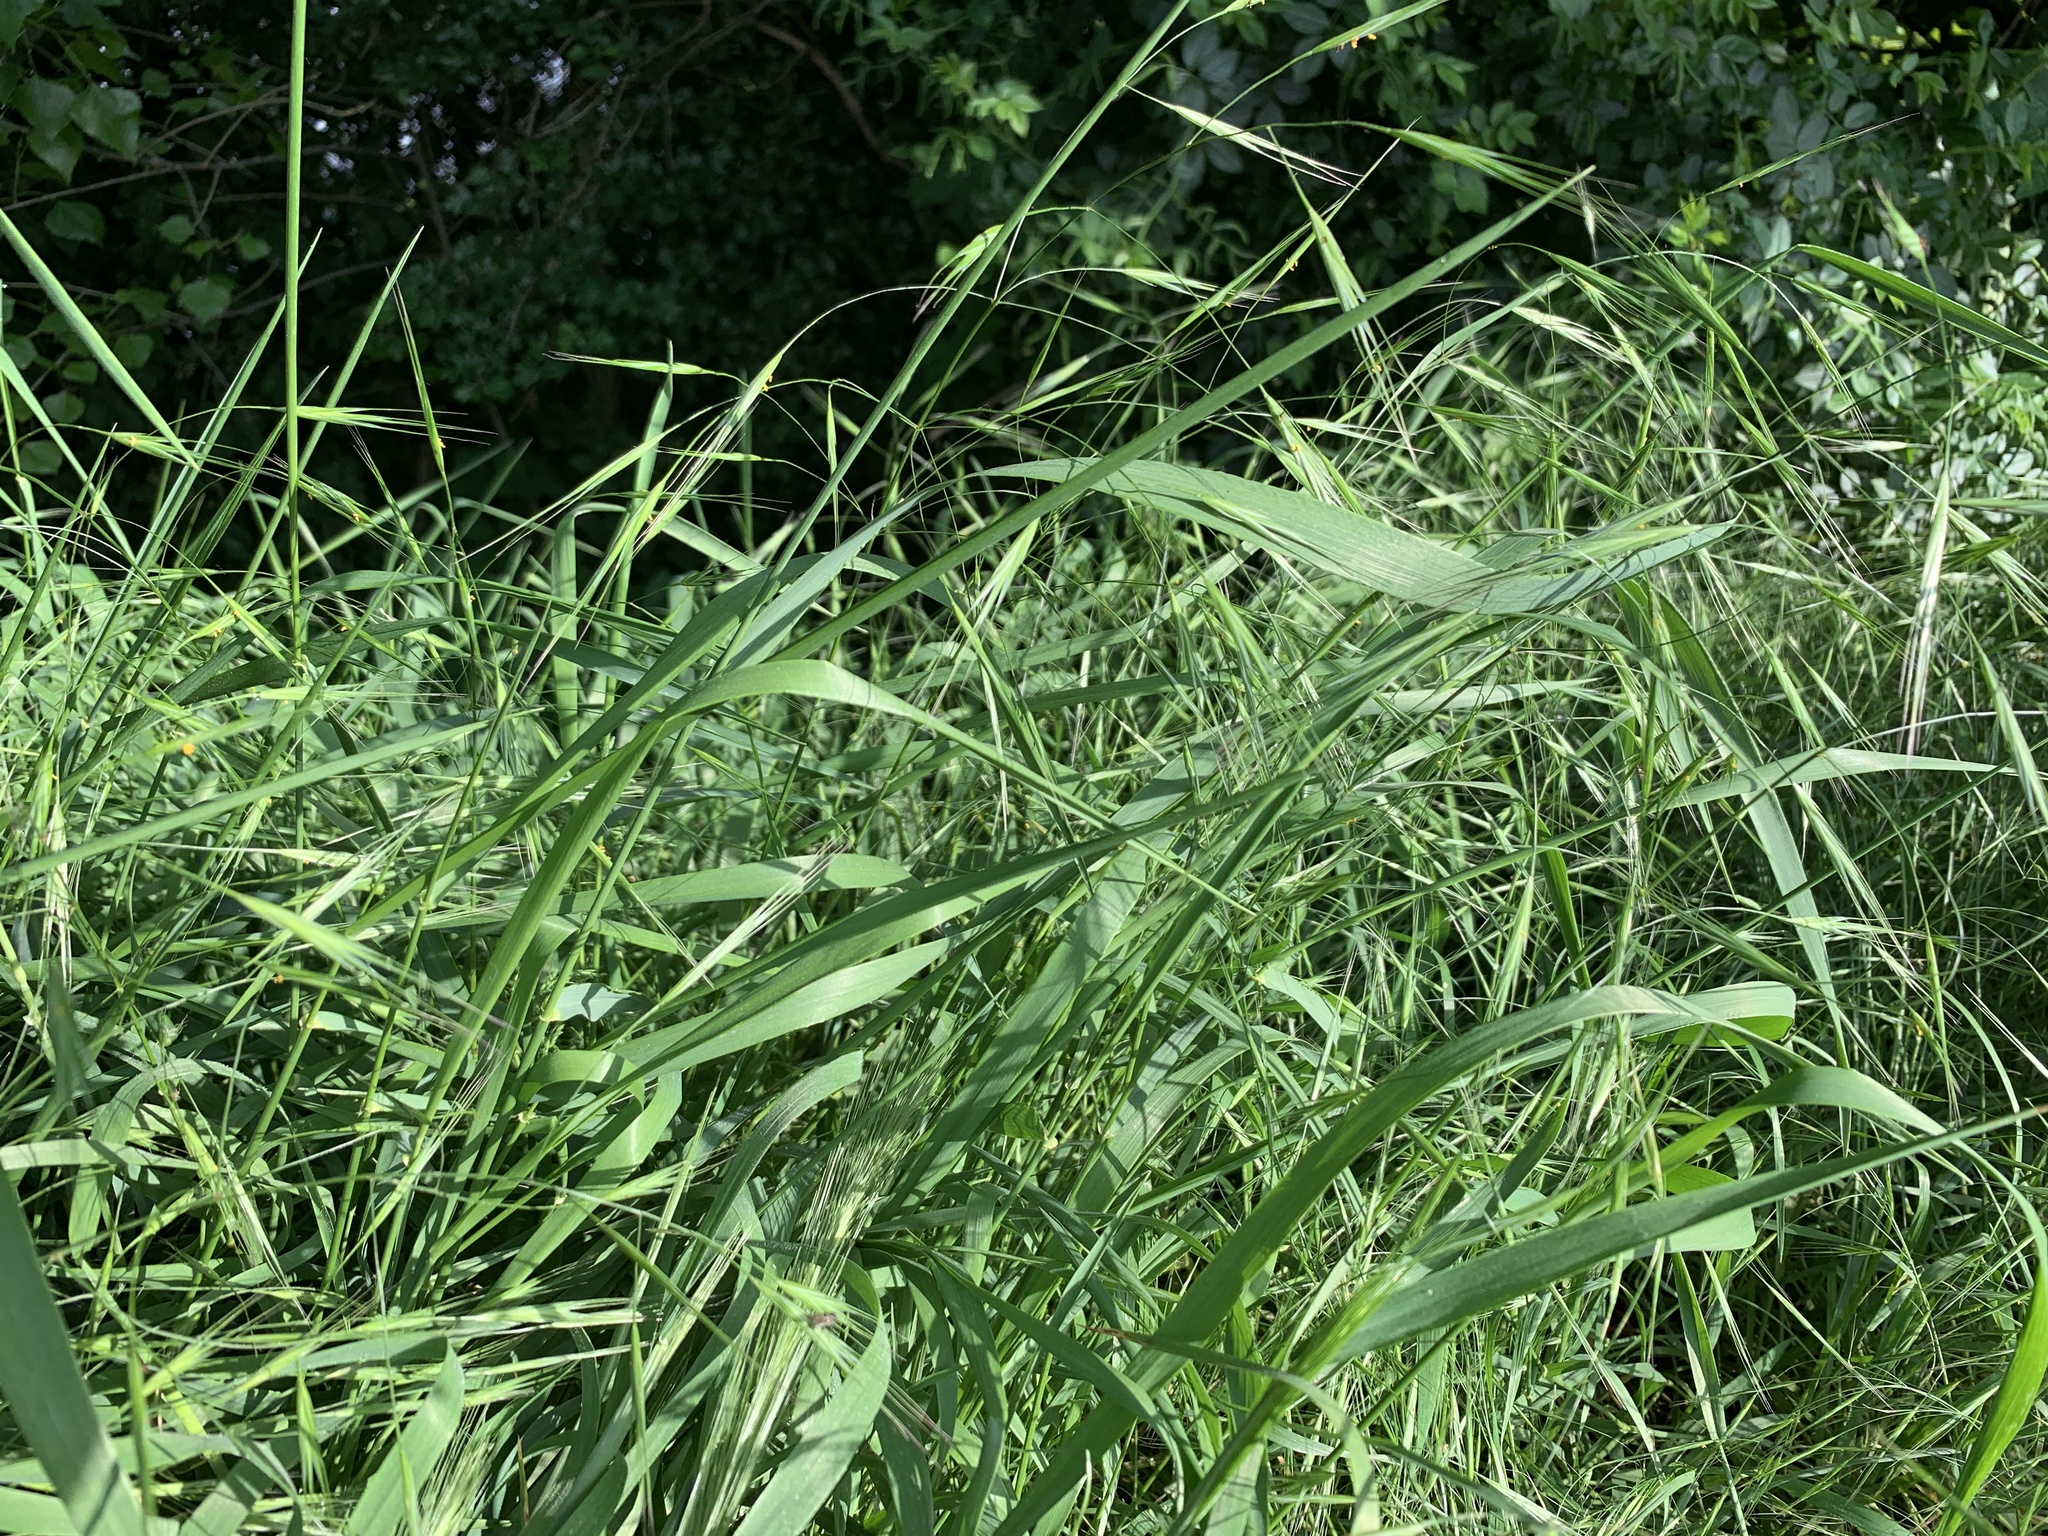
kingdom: Plantae
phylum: Tracheophyta
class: Liliopsida
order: Poales
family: Poaceae
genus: Bromus
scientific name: Bromus sterilis
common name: Poverty brome
